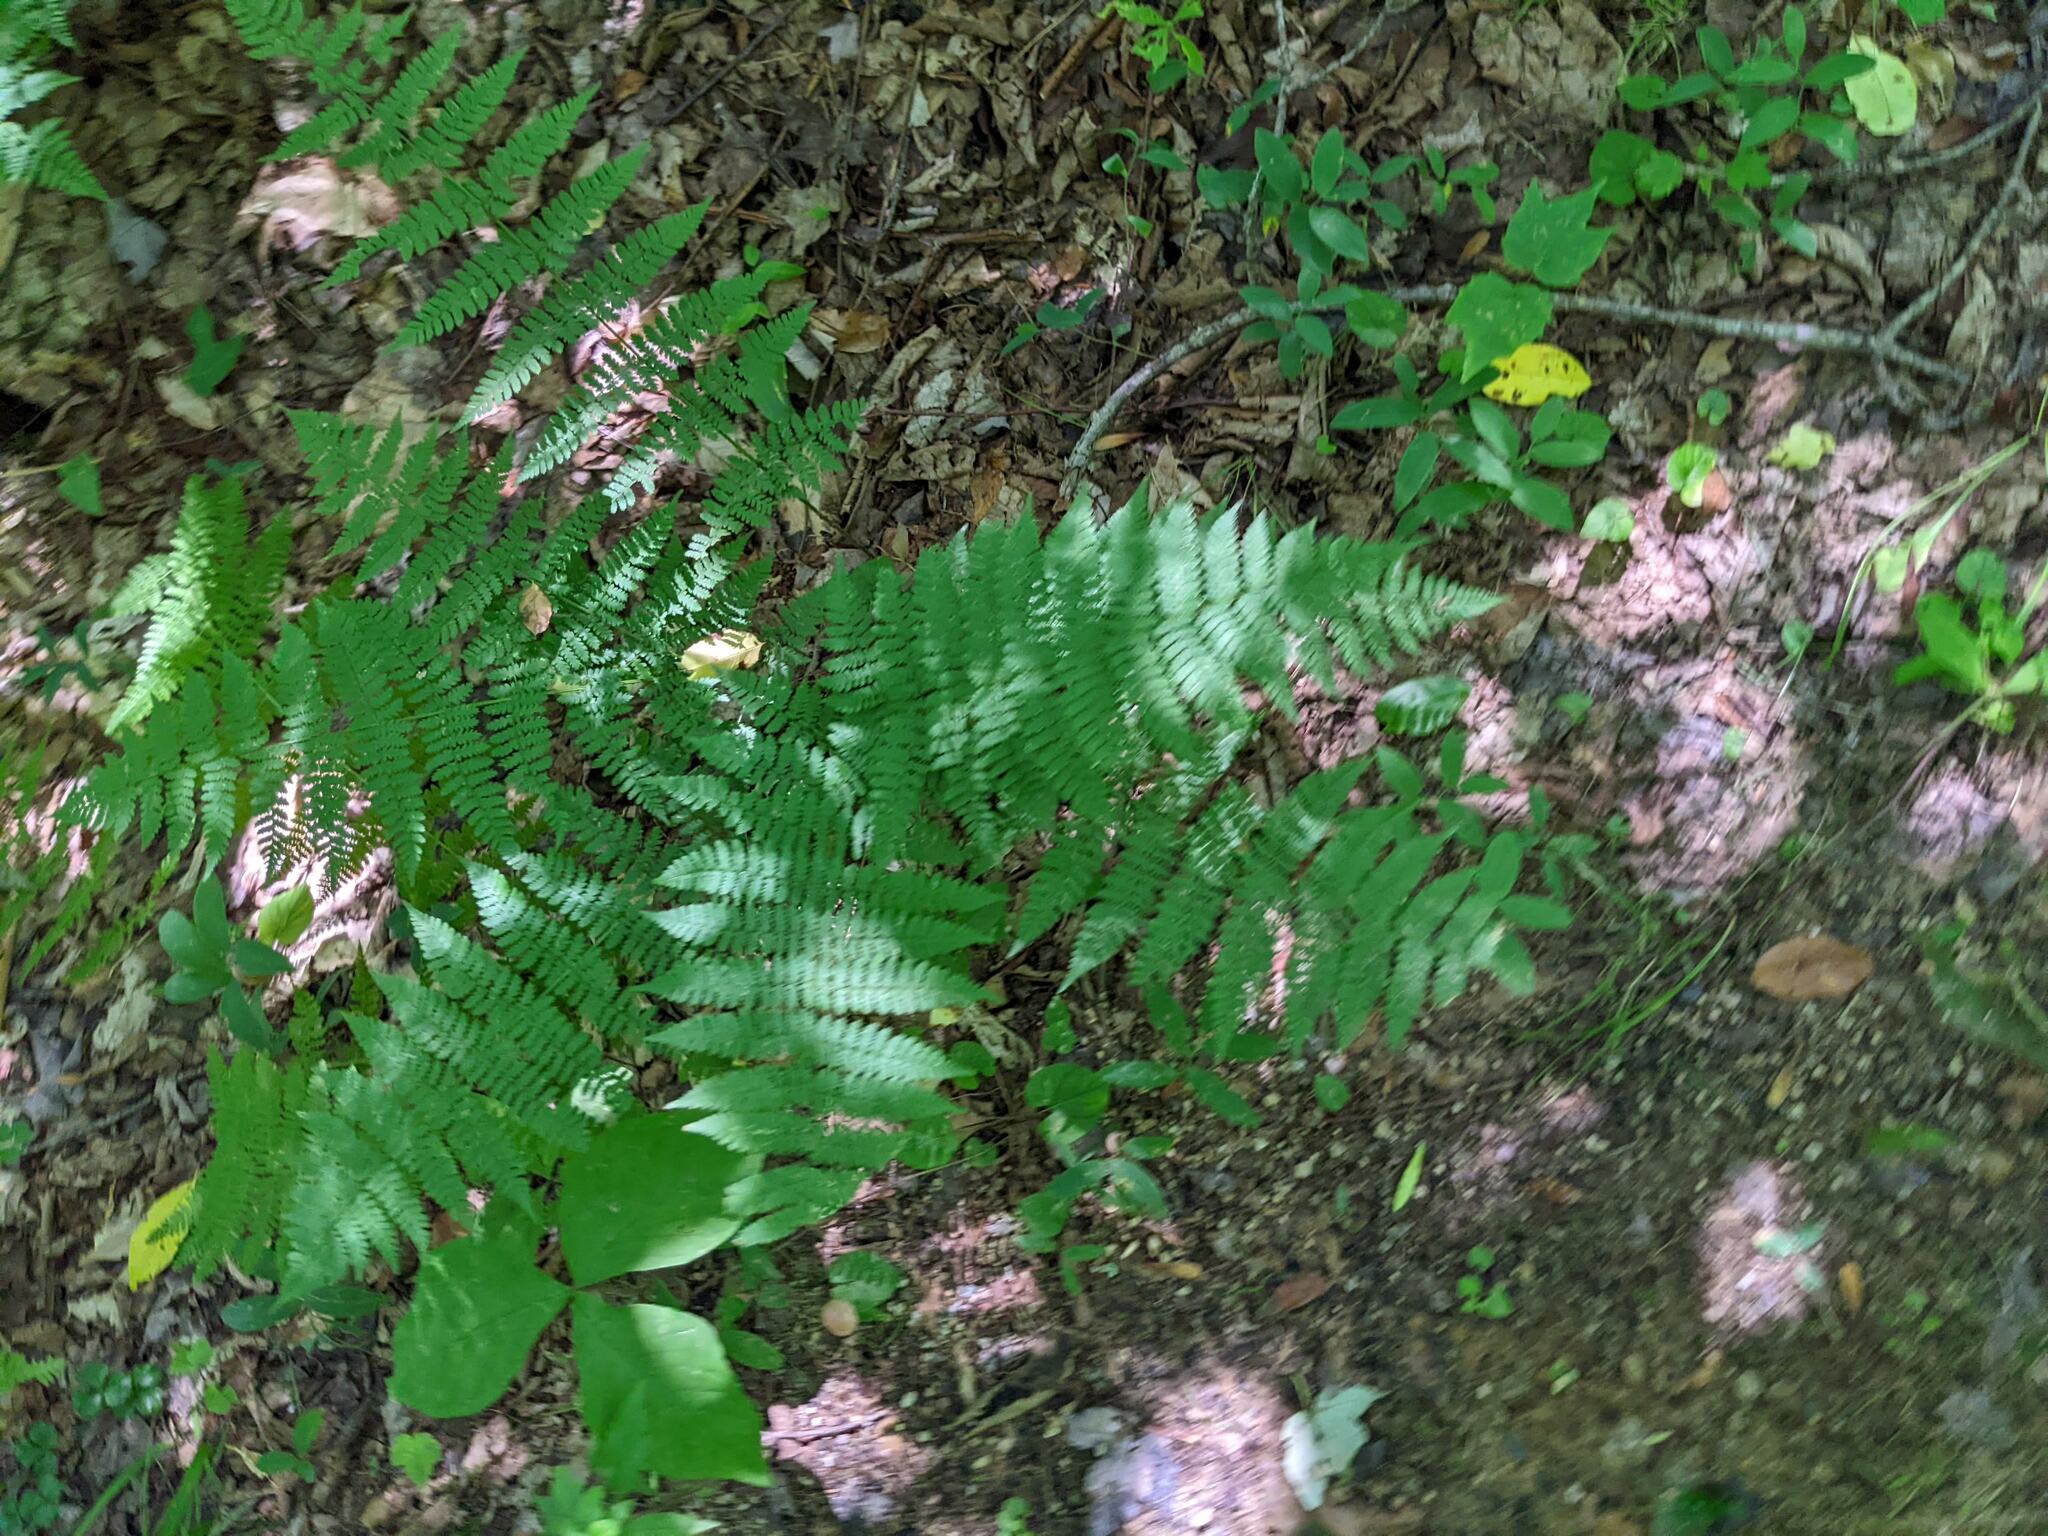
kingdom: Plantae
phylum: Tracheophyta
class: Polypodiopsida
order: Polypodiales
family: Dryopteridaceae
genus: Dryopteris
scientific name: Dryopteris intermedia
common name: Evergreen wood fern
